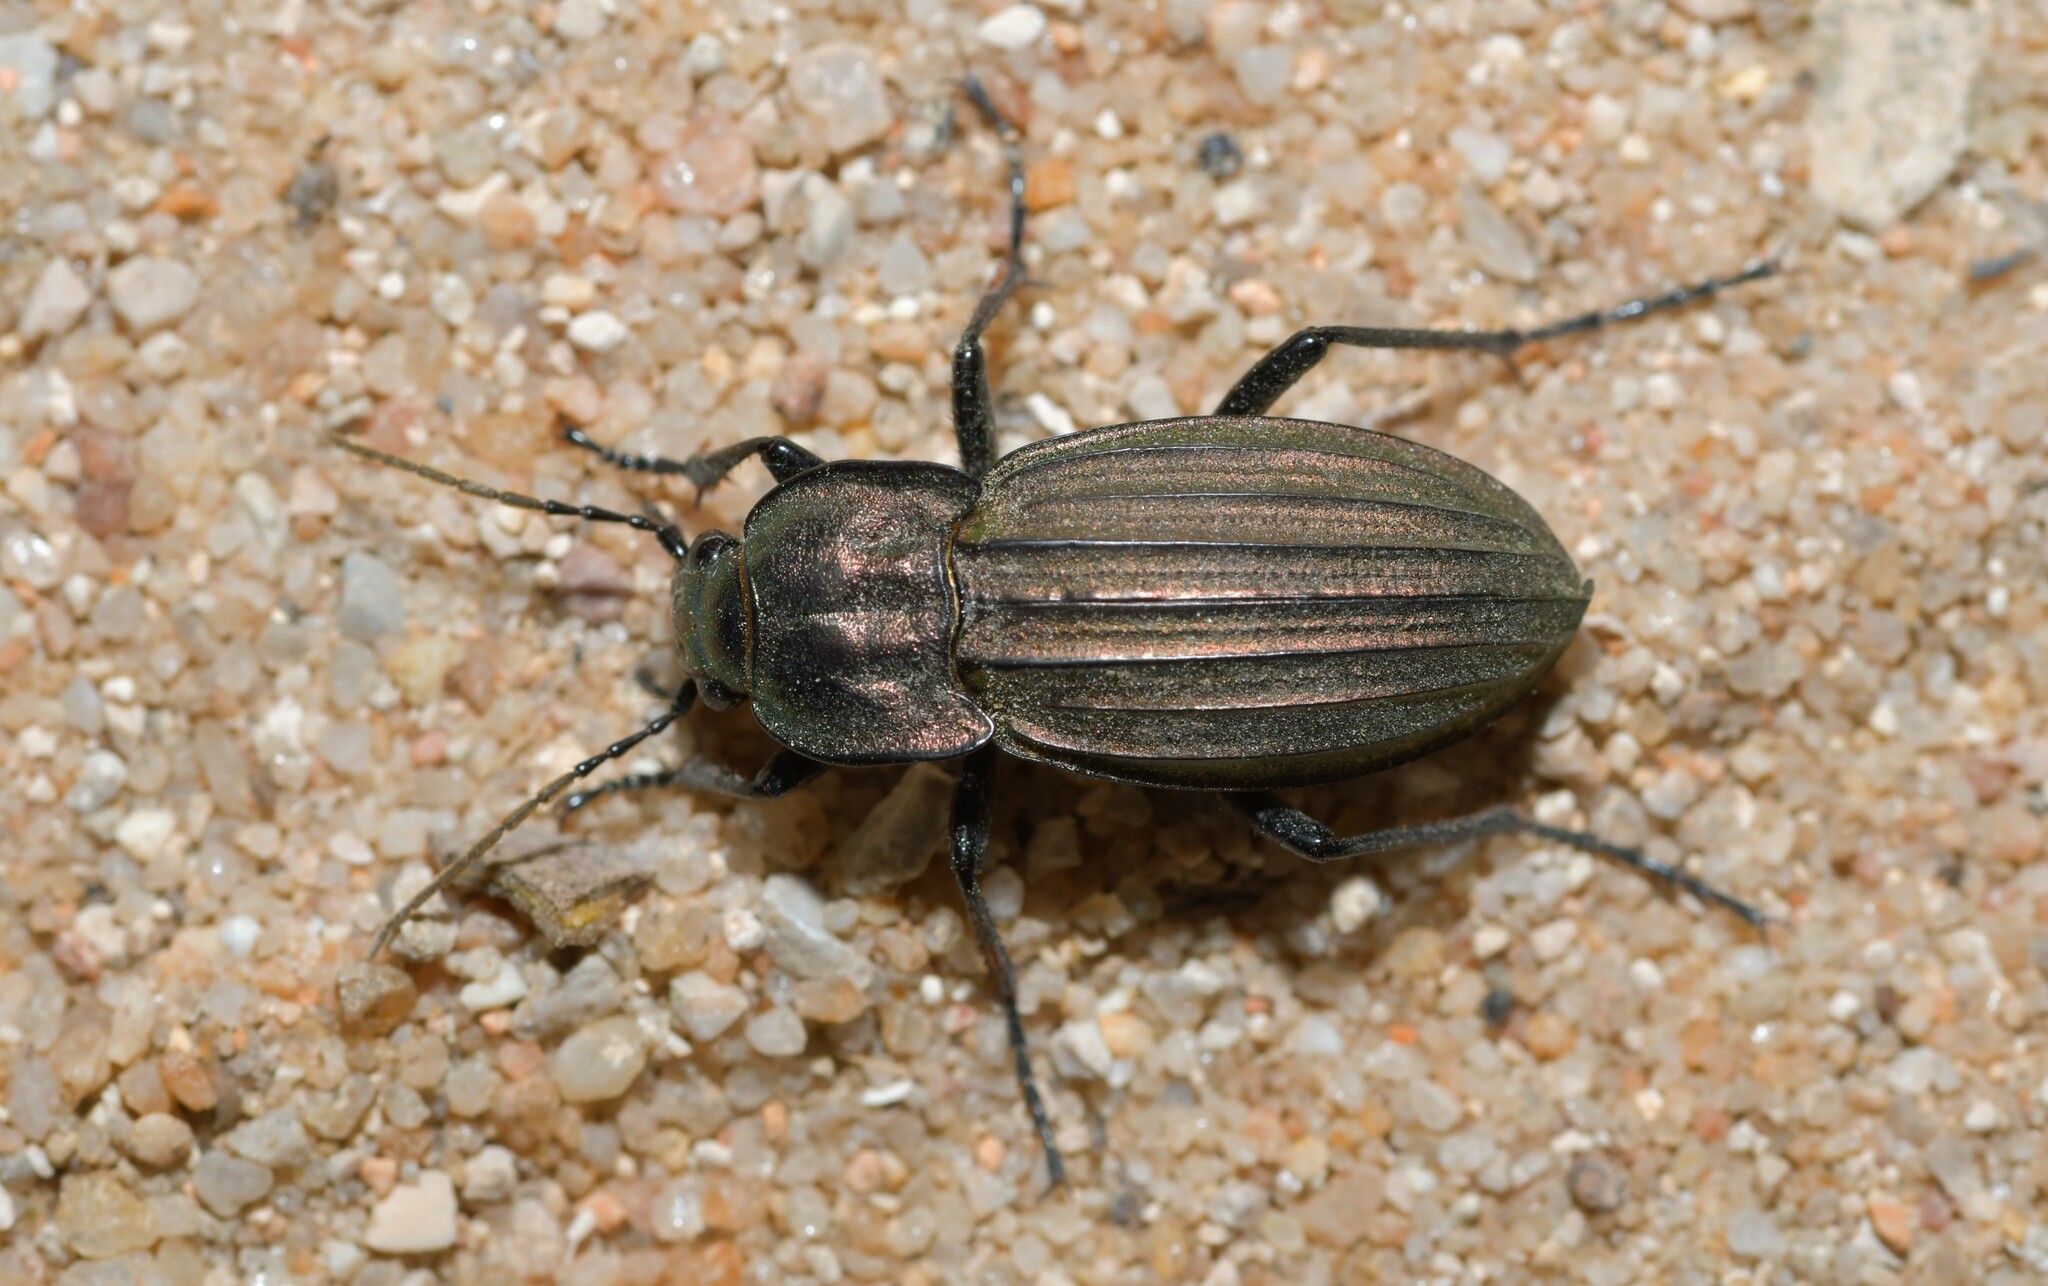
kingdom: Animalia
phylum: Arthropoda
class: Insecta
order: Coleoptera
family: Carabidae
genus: Carabus
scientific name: Carabus melancholicus
